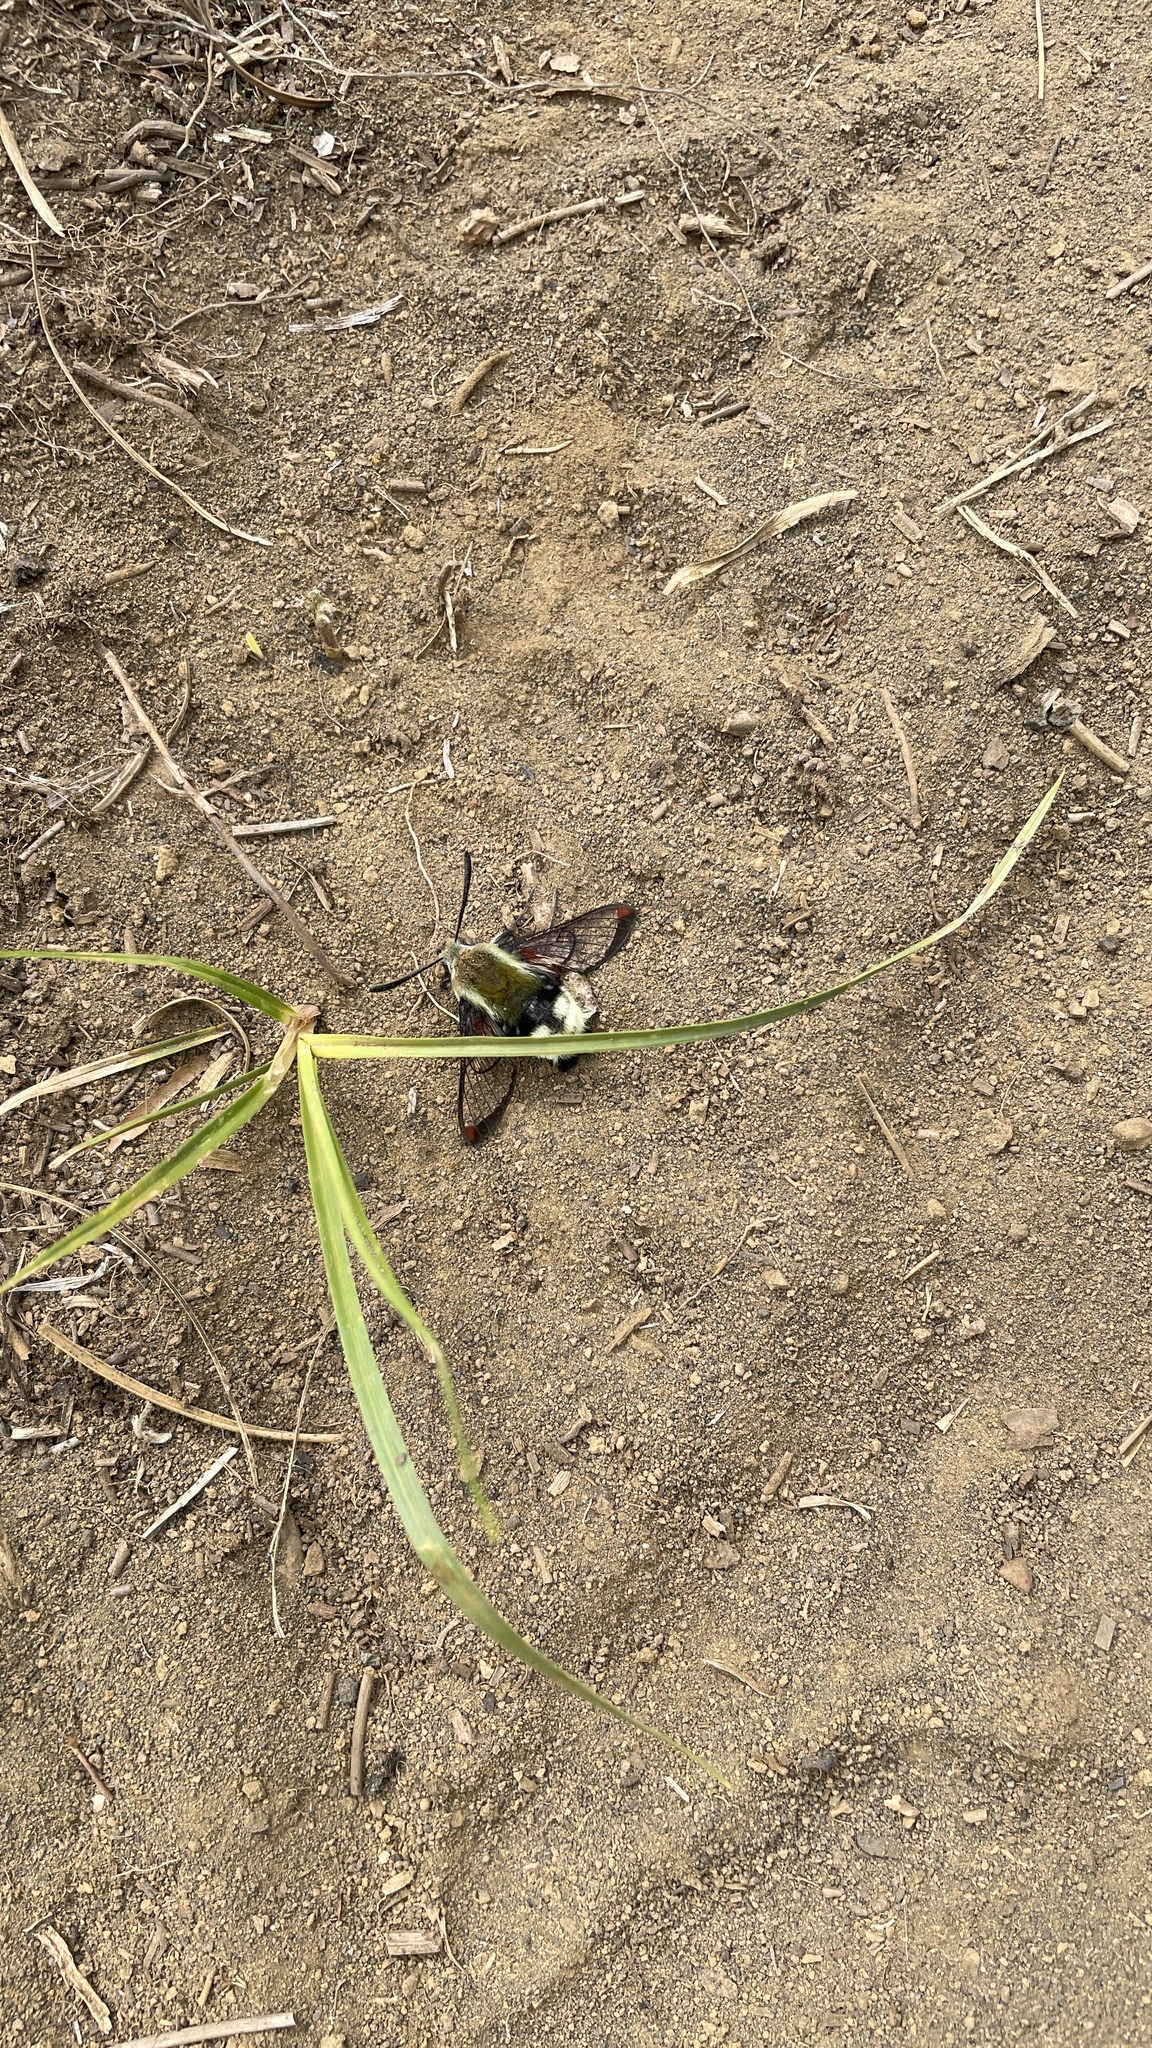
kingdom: Animalia
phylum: Arthropoda
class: Insecta
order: Lepidoptera
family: Sphingidae
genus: Hemaris
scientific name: Hemaris thetis
